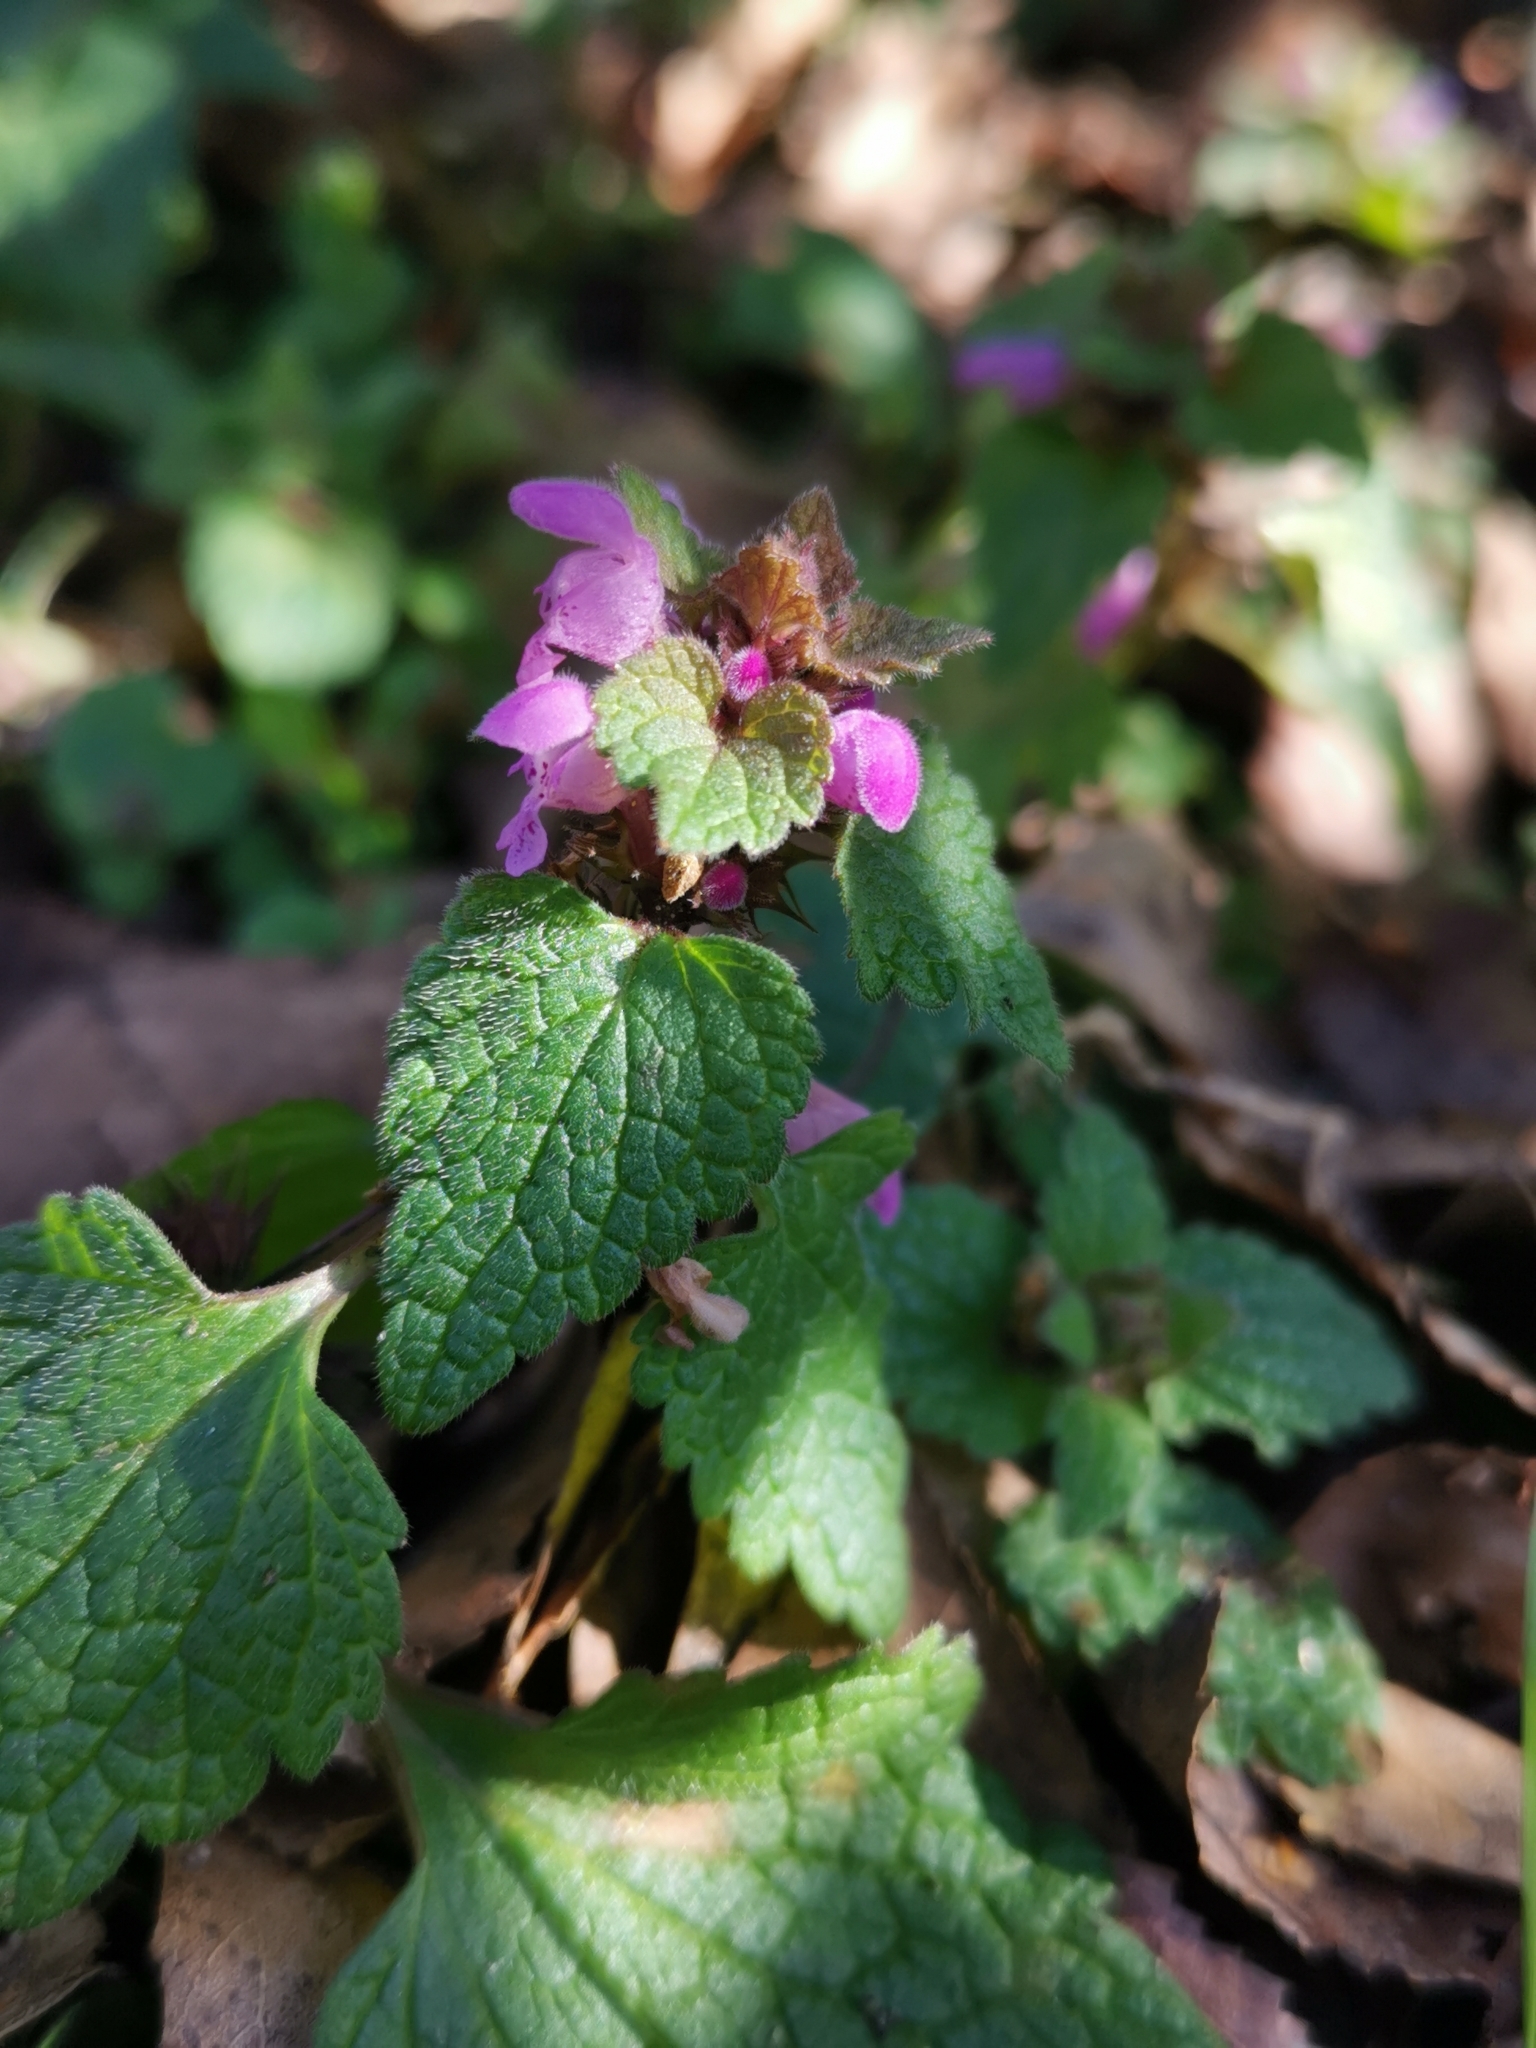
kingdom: Plantae
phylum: Tracheophyta
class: Magnoliopsida
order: Lamiales
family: Lamiaceae
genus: Lamium
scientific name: Lamium purpureum
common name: Red dead-nettle
